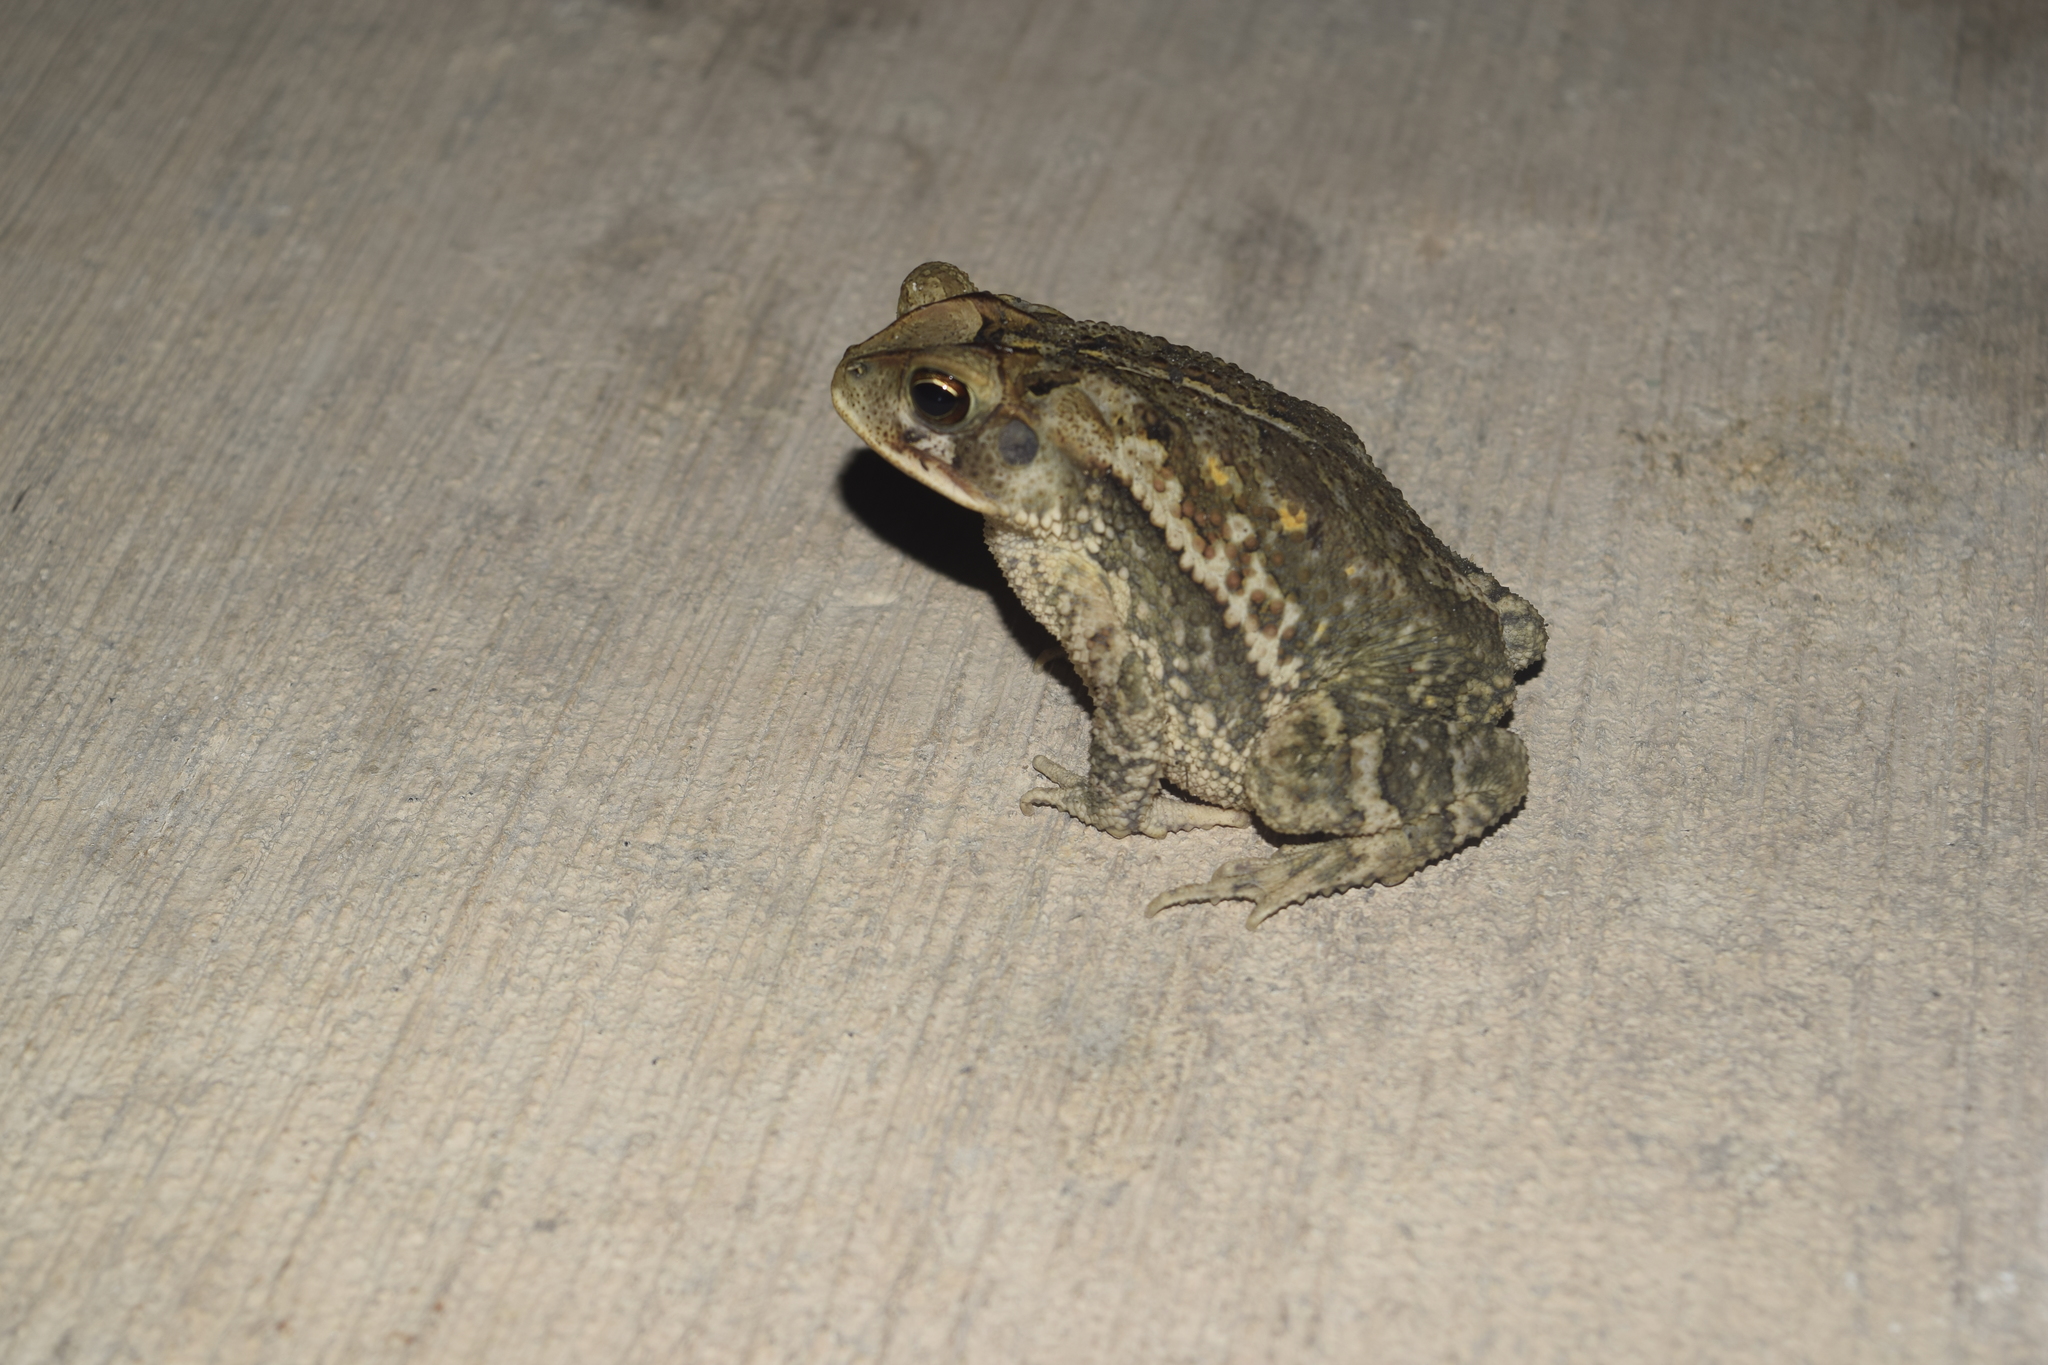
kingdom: Animalia
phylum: Chordata
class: Amphibia
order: Anura
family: Bufonidae
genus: Incilius
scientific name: Incilius valliceps
